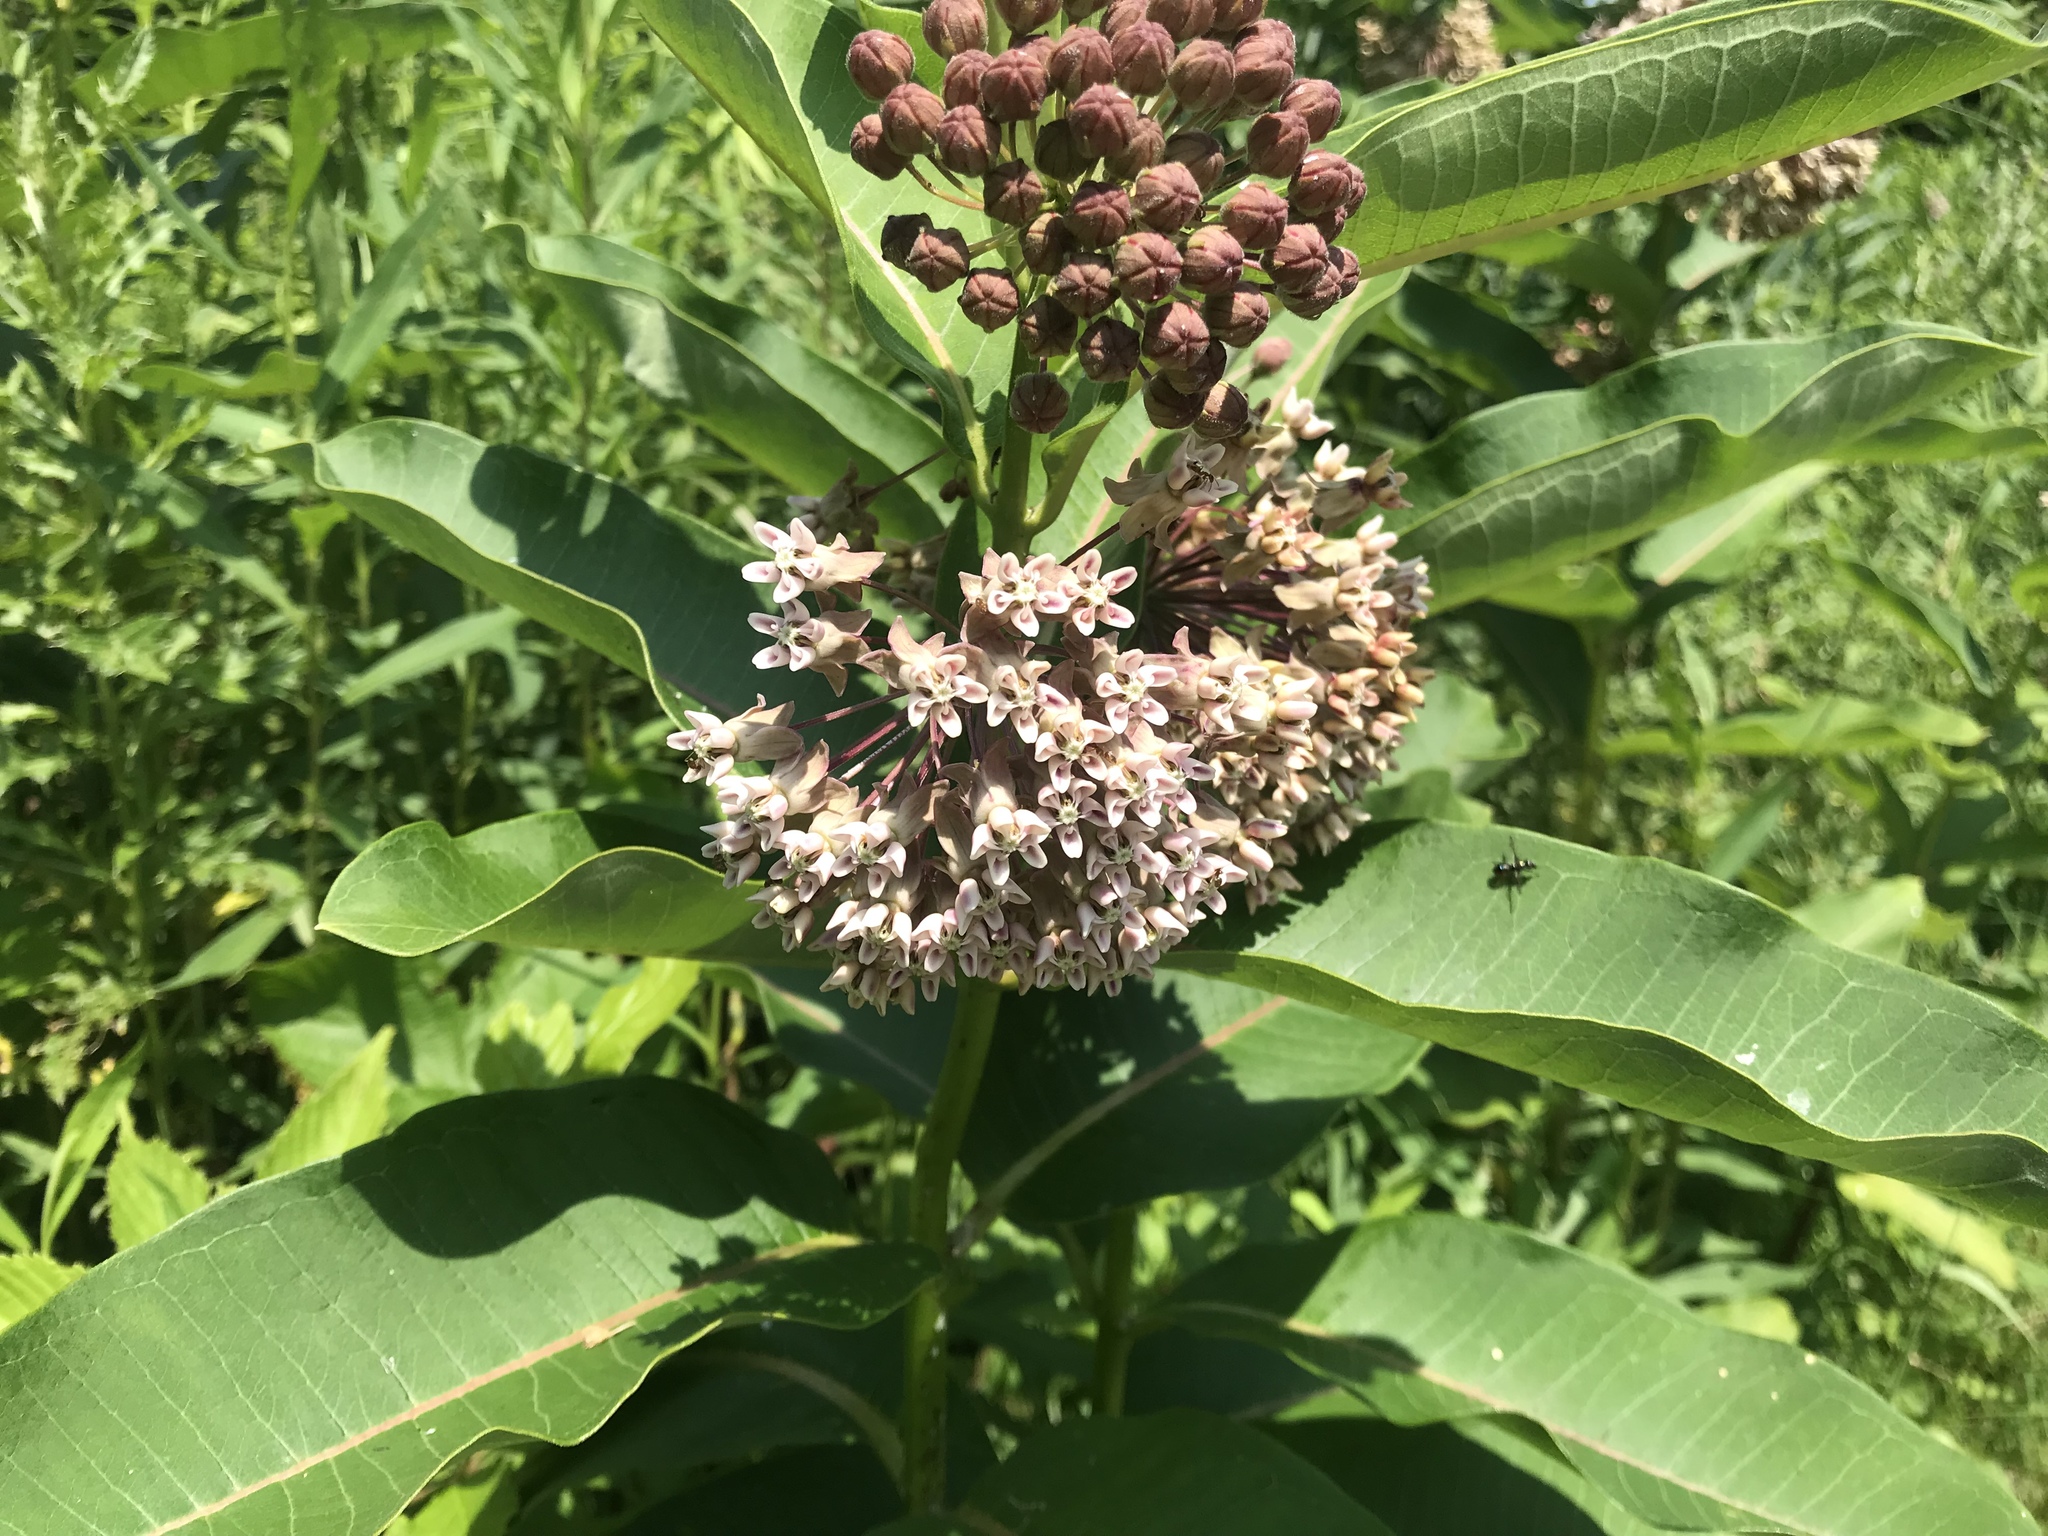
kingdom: Plantae
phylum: Tracheophyta
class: Magnoliopsida
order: Gentianales
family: Apocynaceae
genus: Asclepias
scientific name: Asclepias syriaca
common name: Common milkweed
